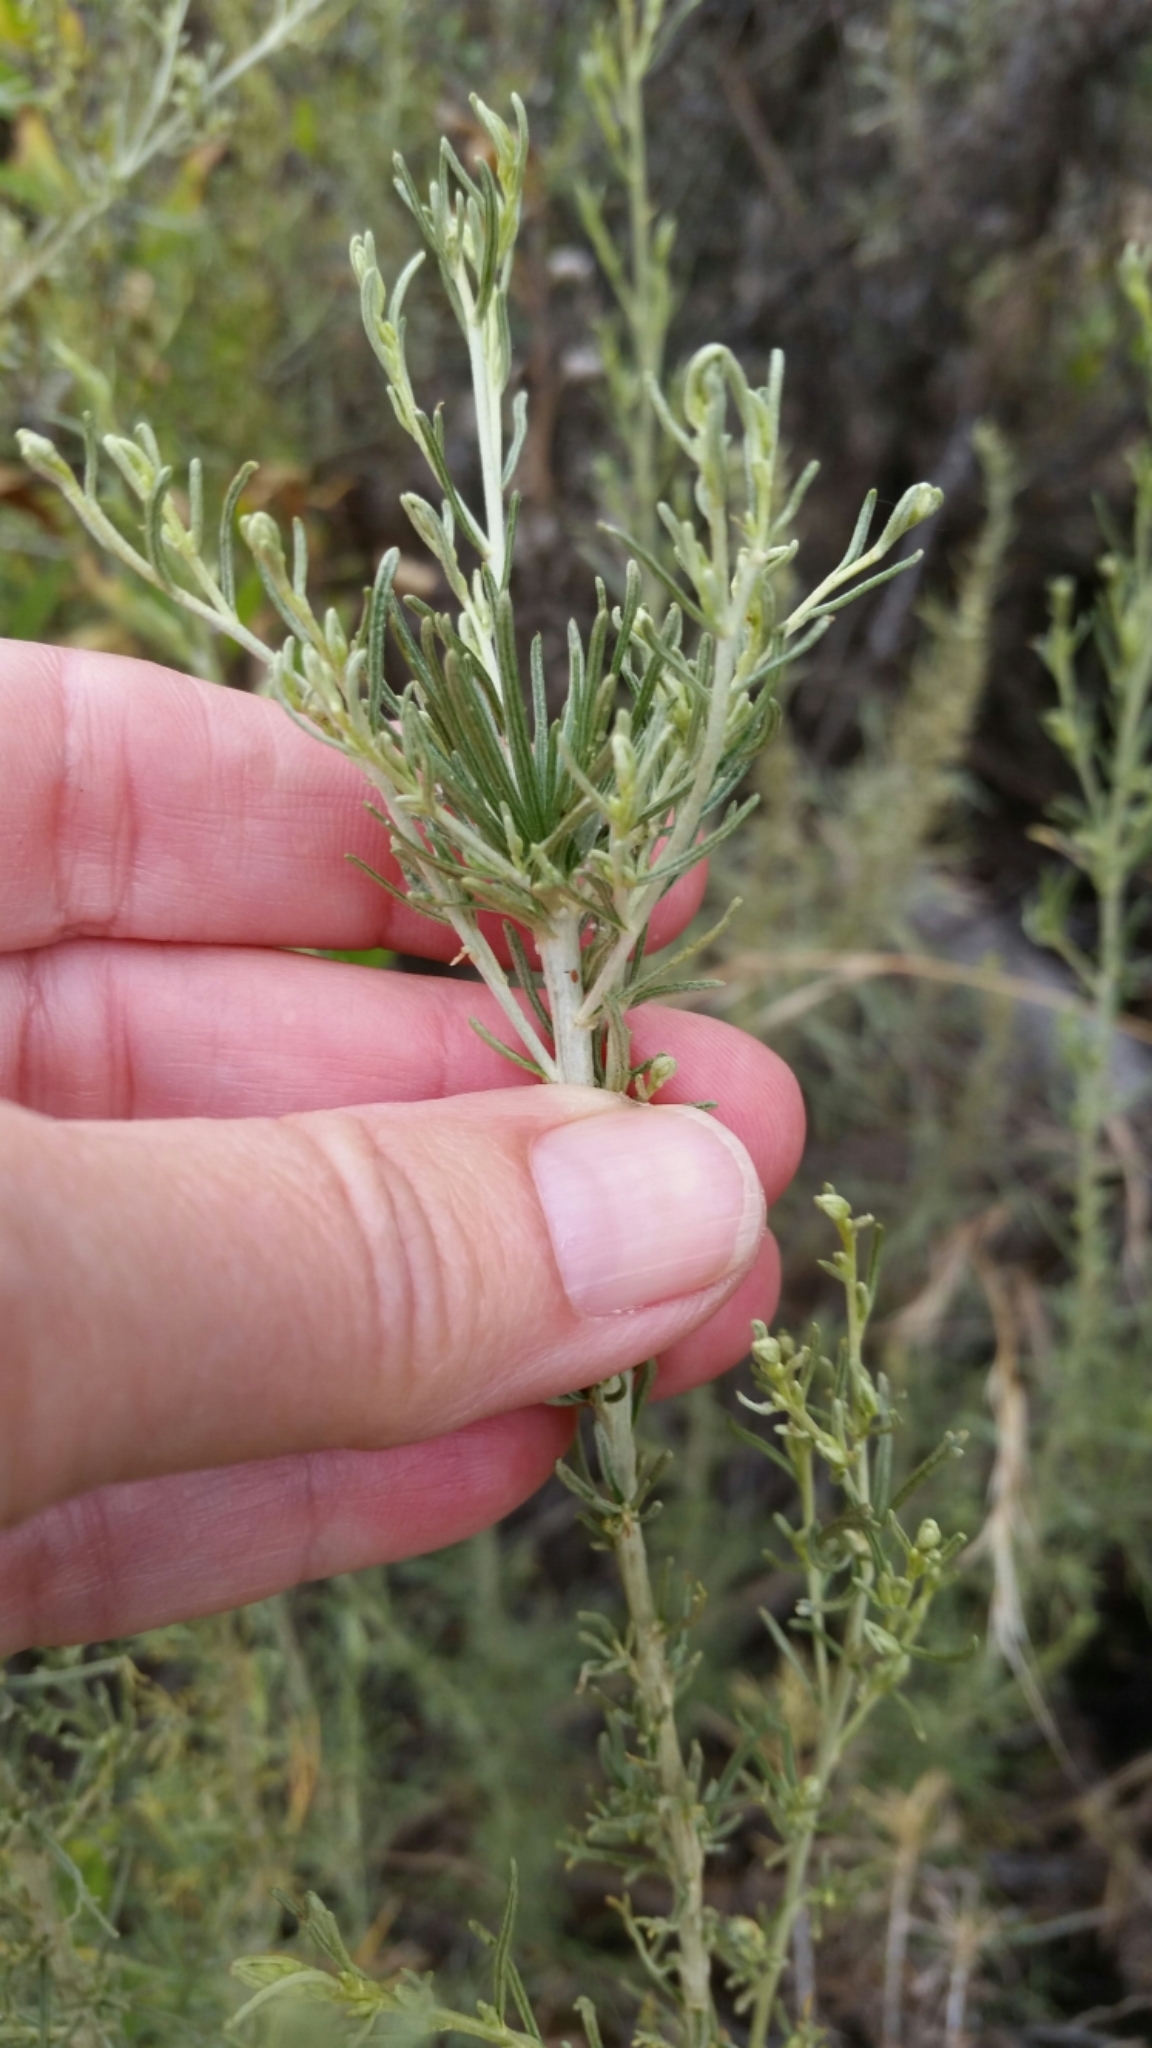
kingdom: Plantae
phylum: Tracheophyta
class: Magnoliopsida
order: Asterales
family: Asteraceae
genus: Artemisia
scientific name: Artemisia californica
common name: California sagebrush
